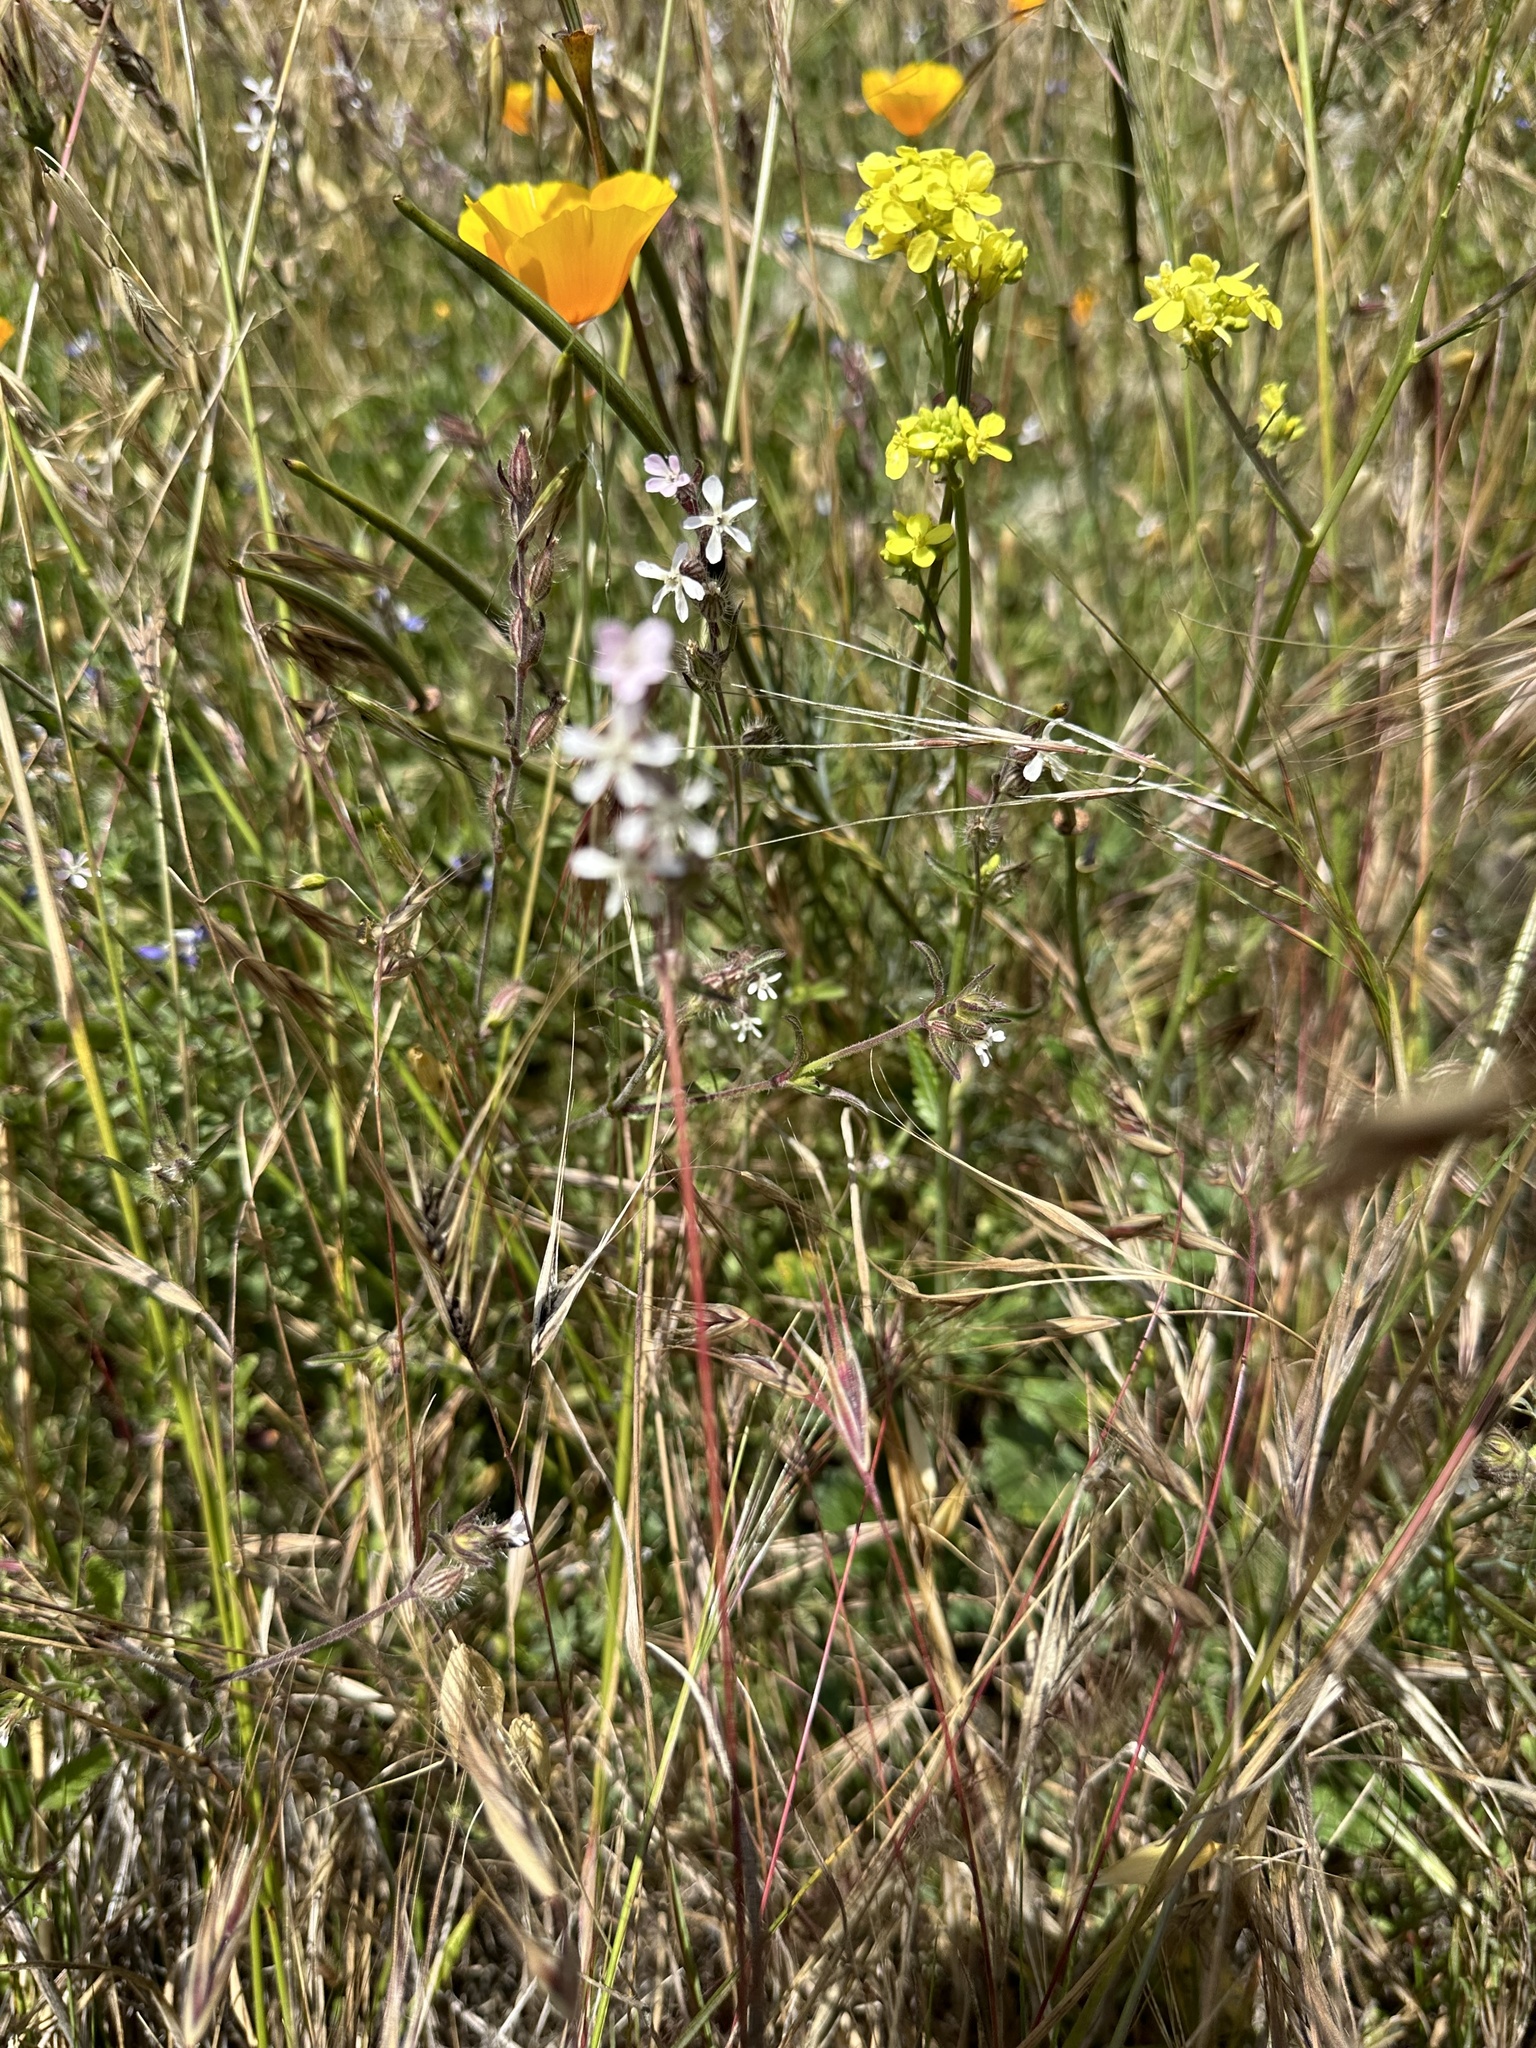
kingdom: Plantae
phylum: Tracheophyta
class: Magnoliopsida
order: Caryophyllales
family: Caryophyllaceae
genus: Silene
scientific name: Silene gallica
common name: Small-flowered catchfly
